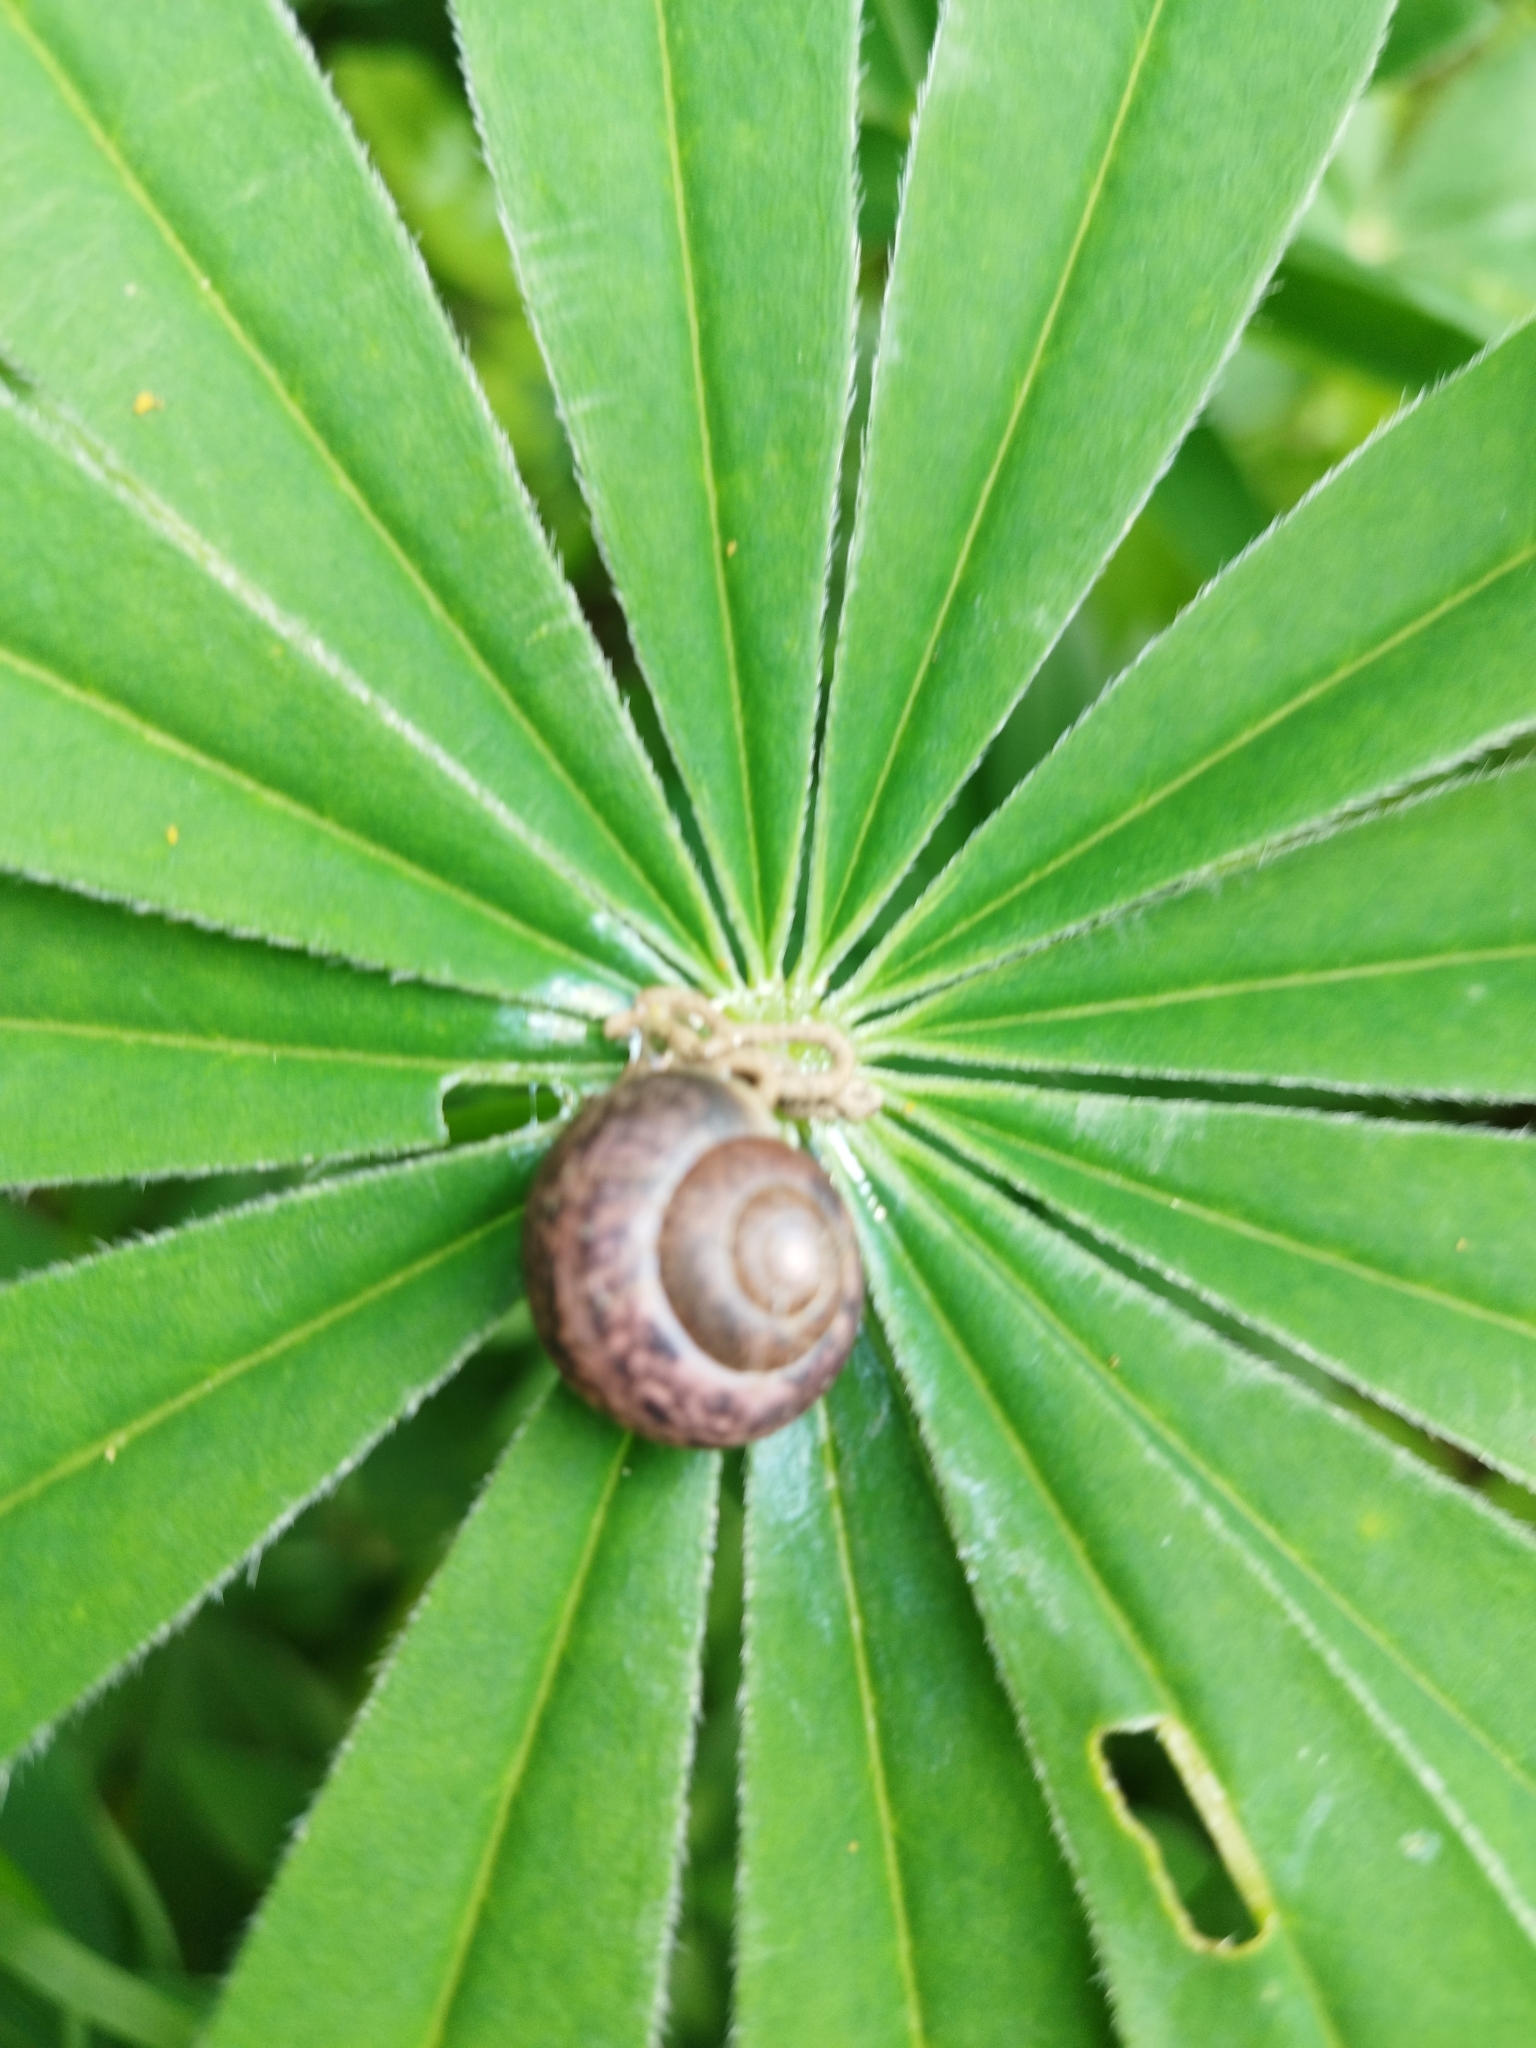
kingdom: Animalia
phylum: Mollusca
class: Gastropoda
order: Stylommatophora
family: Camaenidae
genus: Fruticicola
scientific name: Fruticicola fruticum
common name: Bush snail
